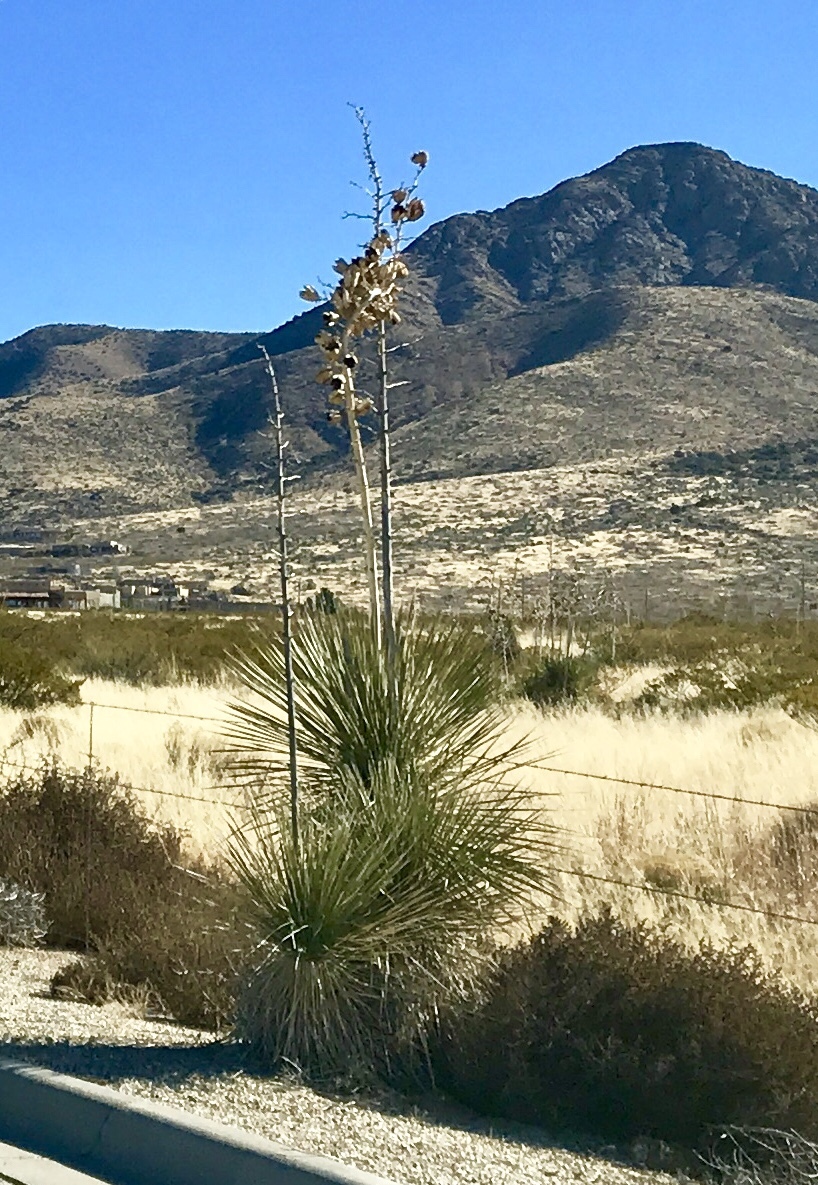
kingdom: Plantae
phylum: Tracheophyta
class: Liliopsida
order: Asparagales
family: Asparagaceae
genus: Yucca
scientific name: Yucca elata
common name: Palmella
